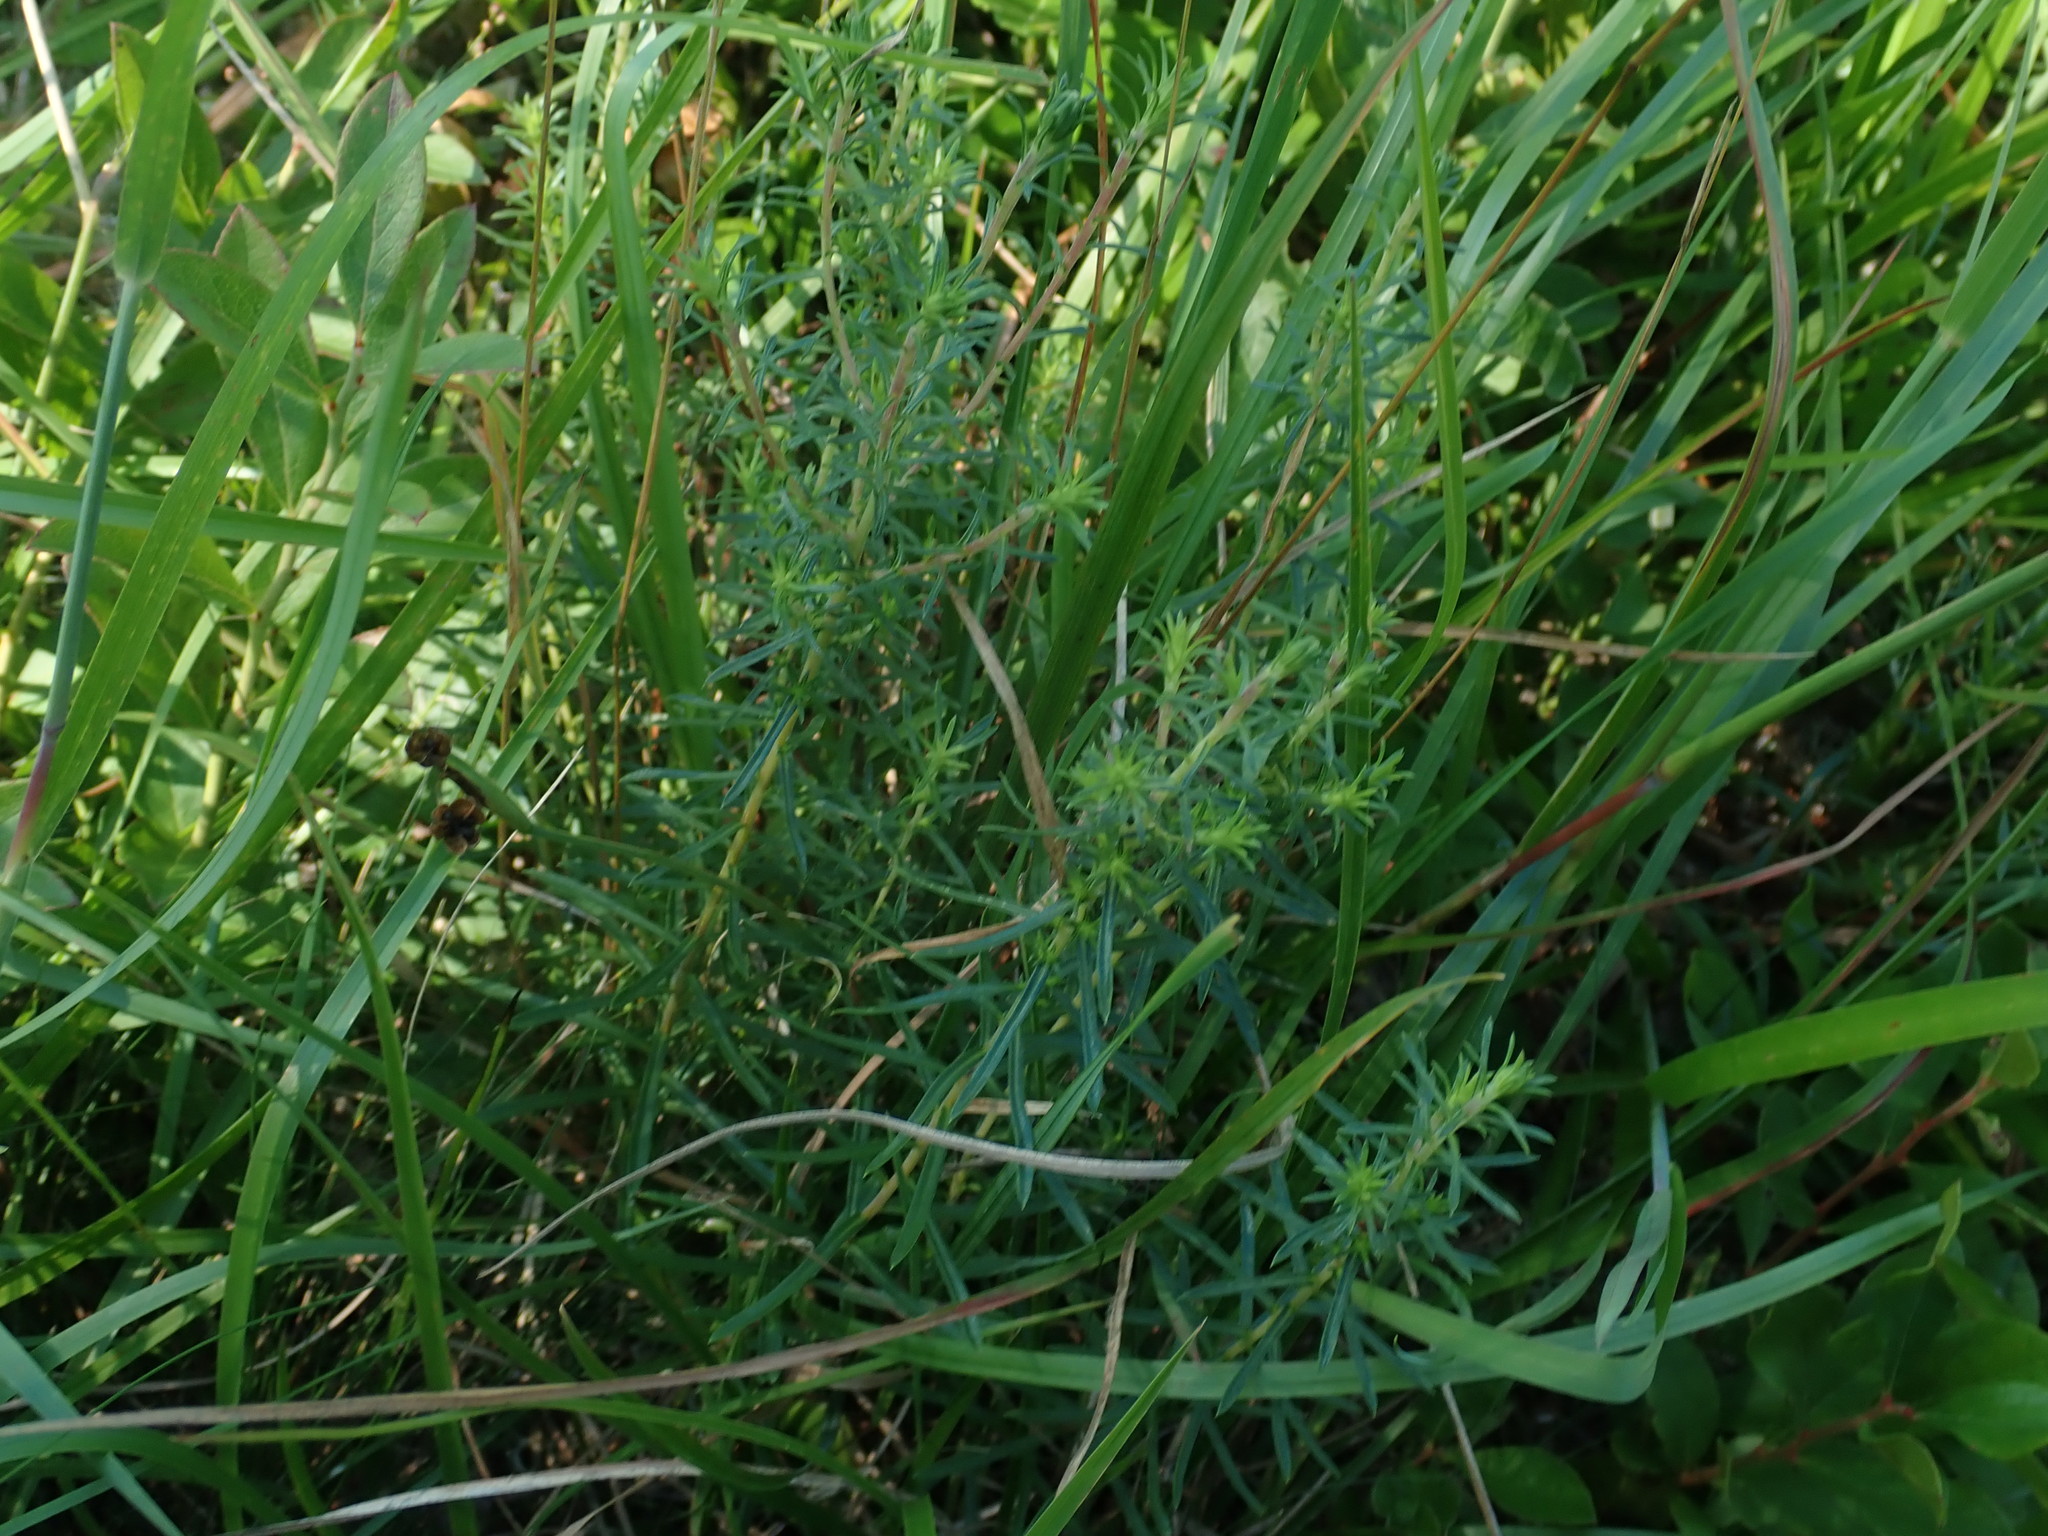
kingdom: Plantae
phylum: Tracheophyta
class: Magnoliopsida
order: Asterales
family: Asteraceae
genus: Ionactis
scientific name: Ionactis linariifolia
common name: Flax-leaf aster
